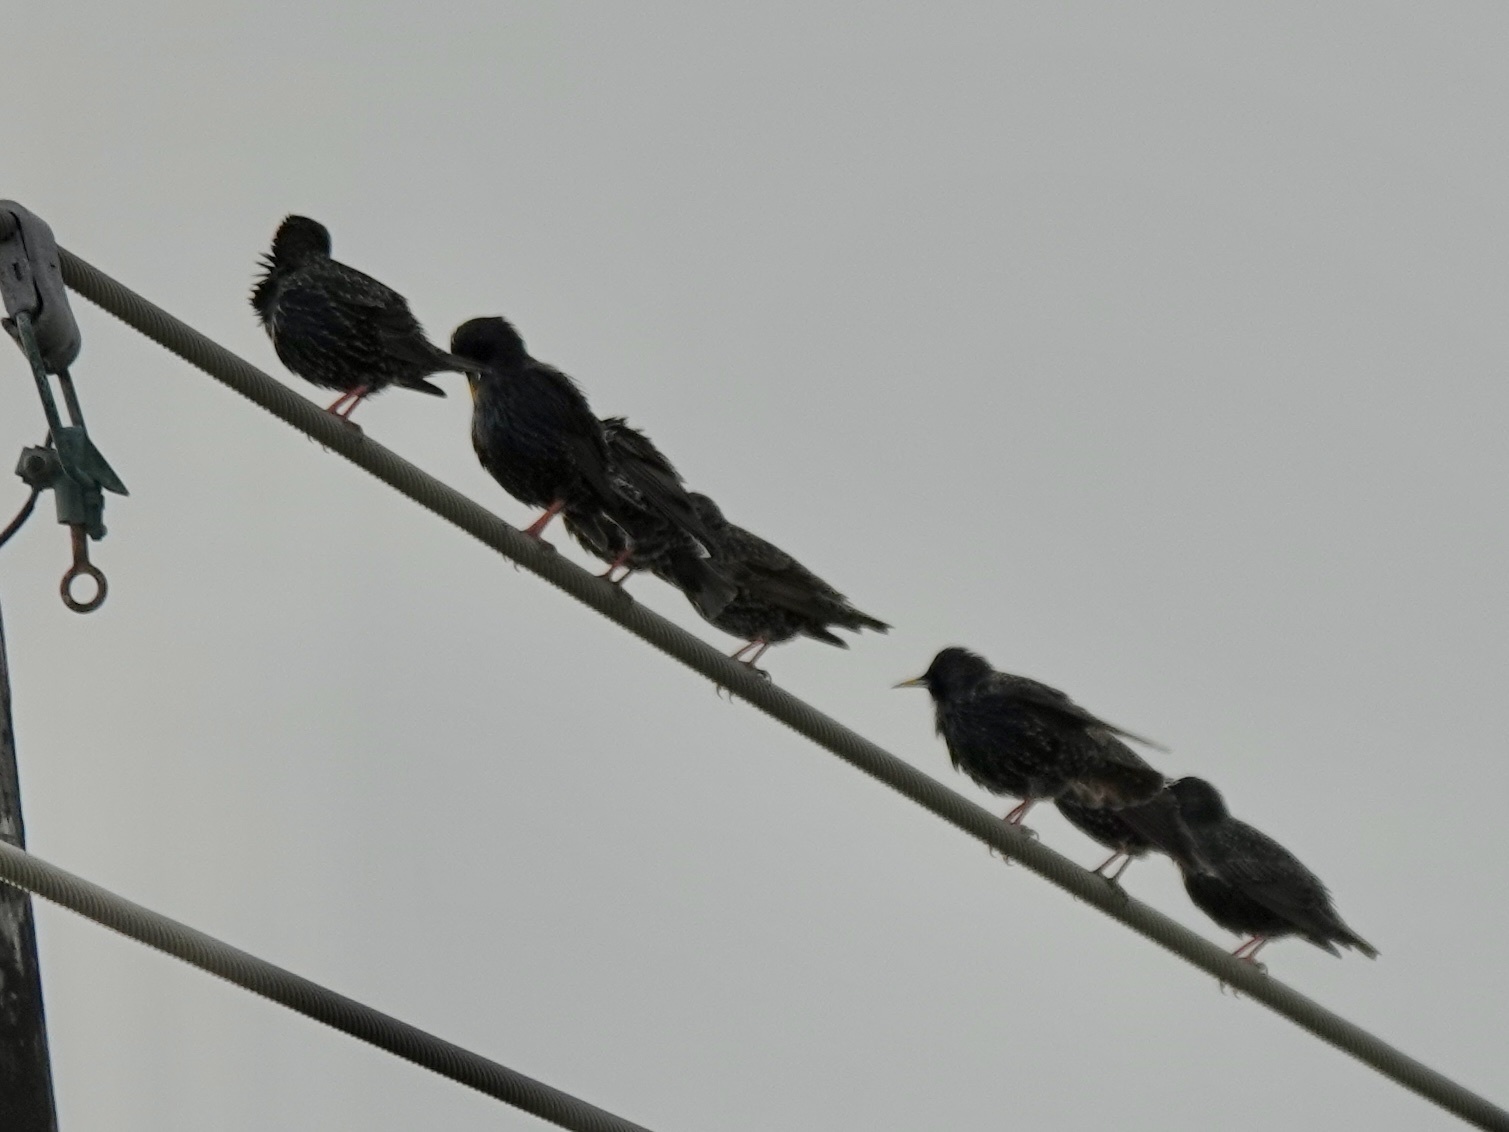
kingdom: Animalia
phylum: Chordata
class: Aves
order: Passeriformes
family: Sturnidae
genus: Sturnus
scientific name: Sturnus vulgaris
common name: Common starling
